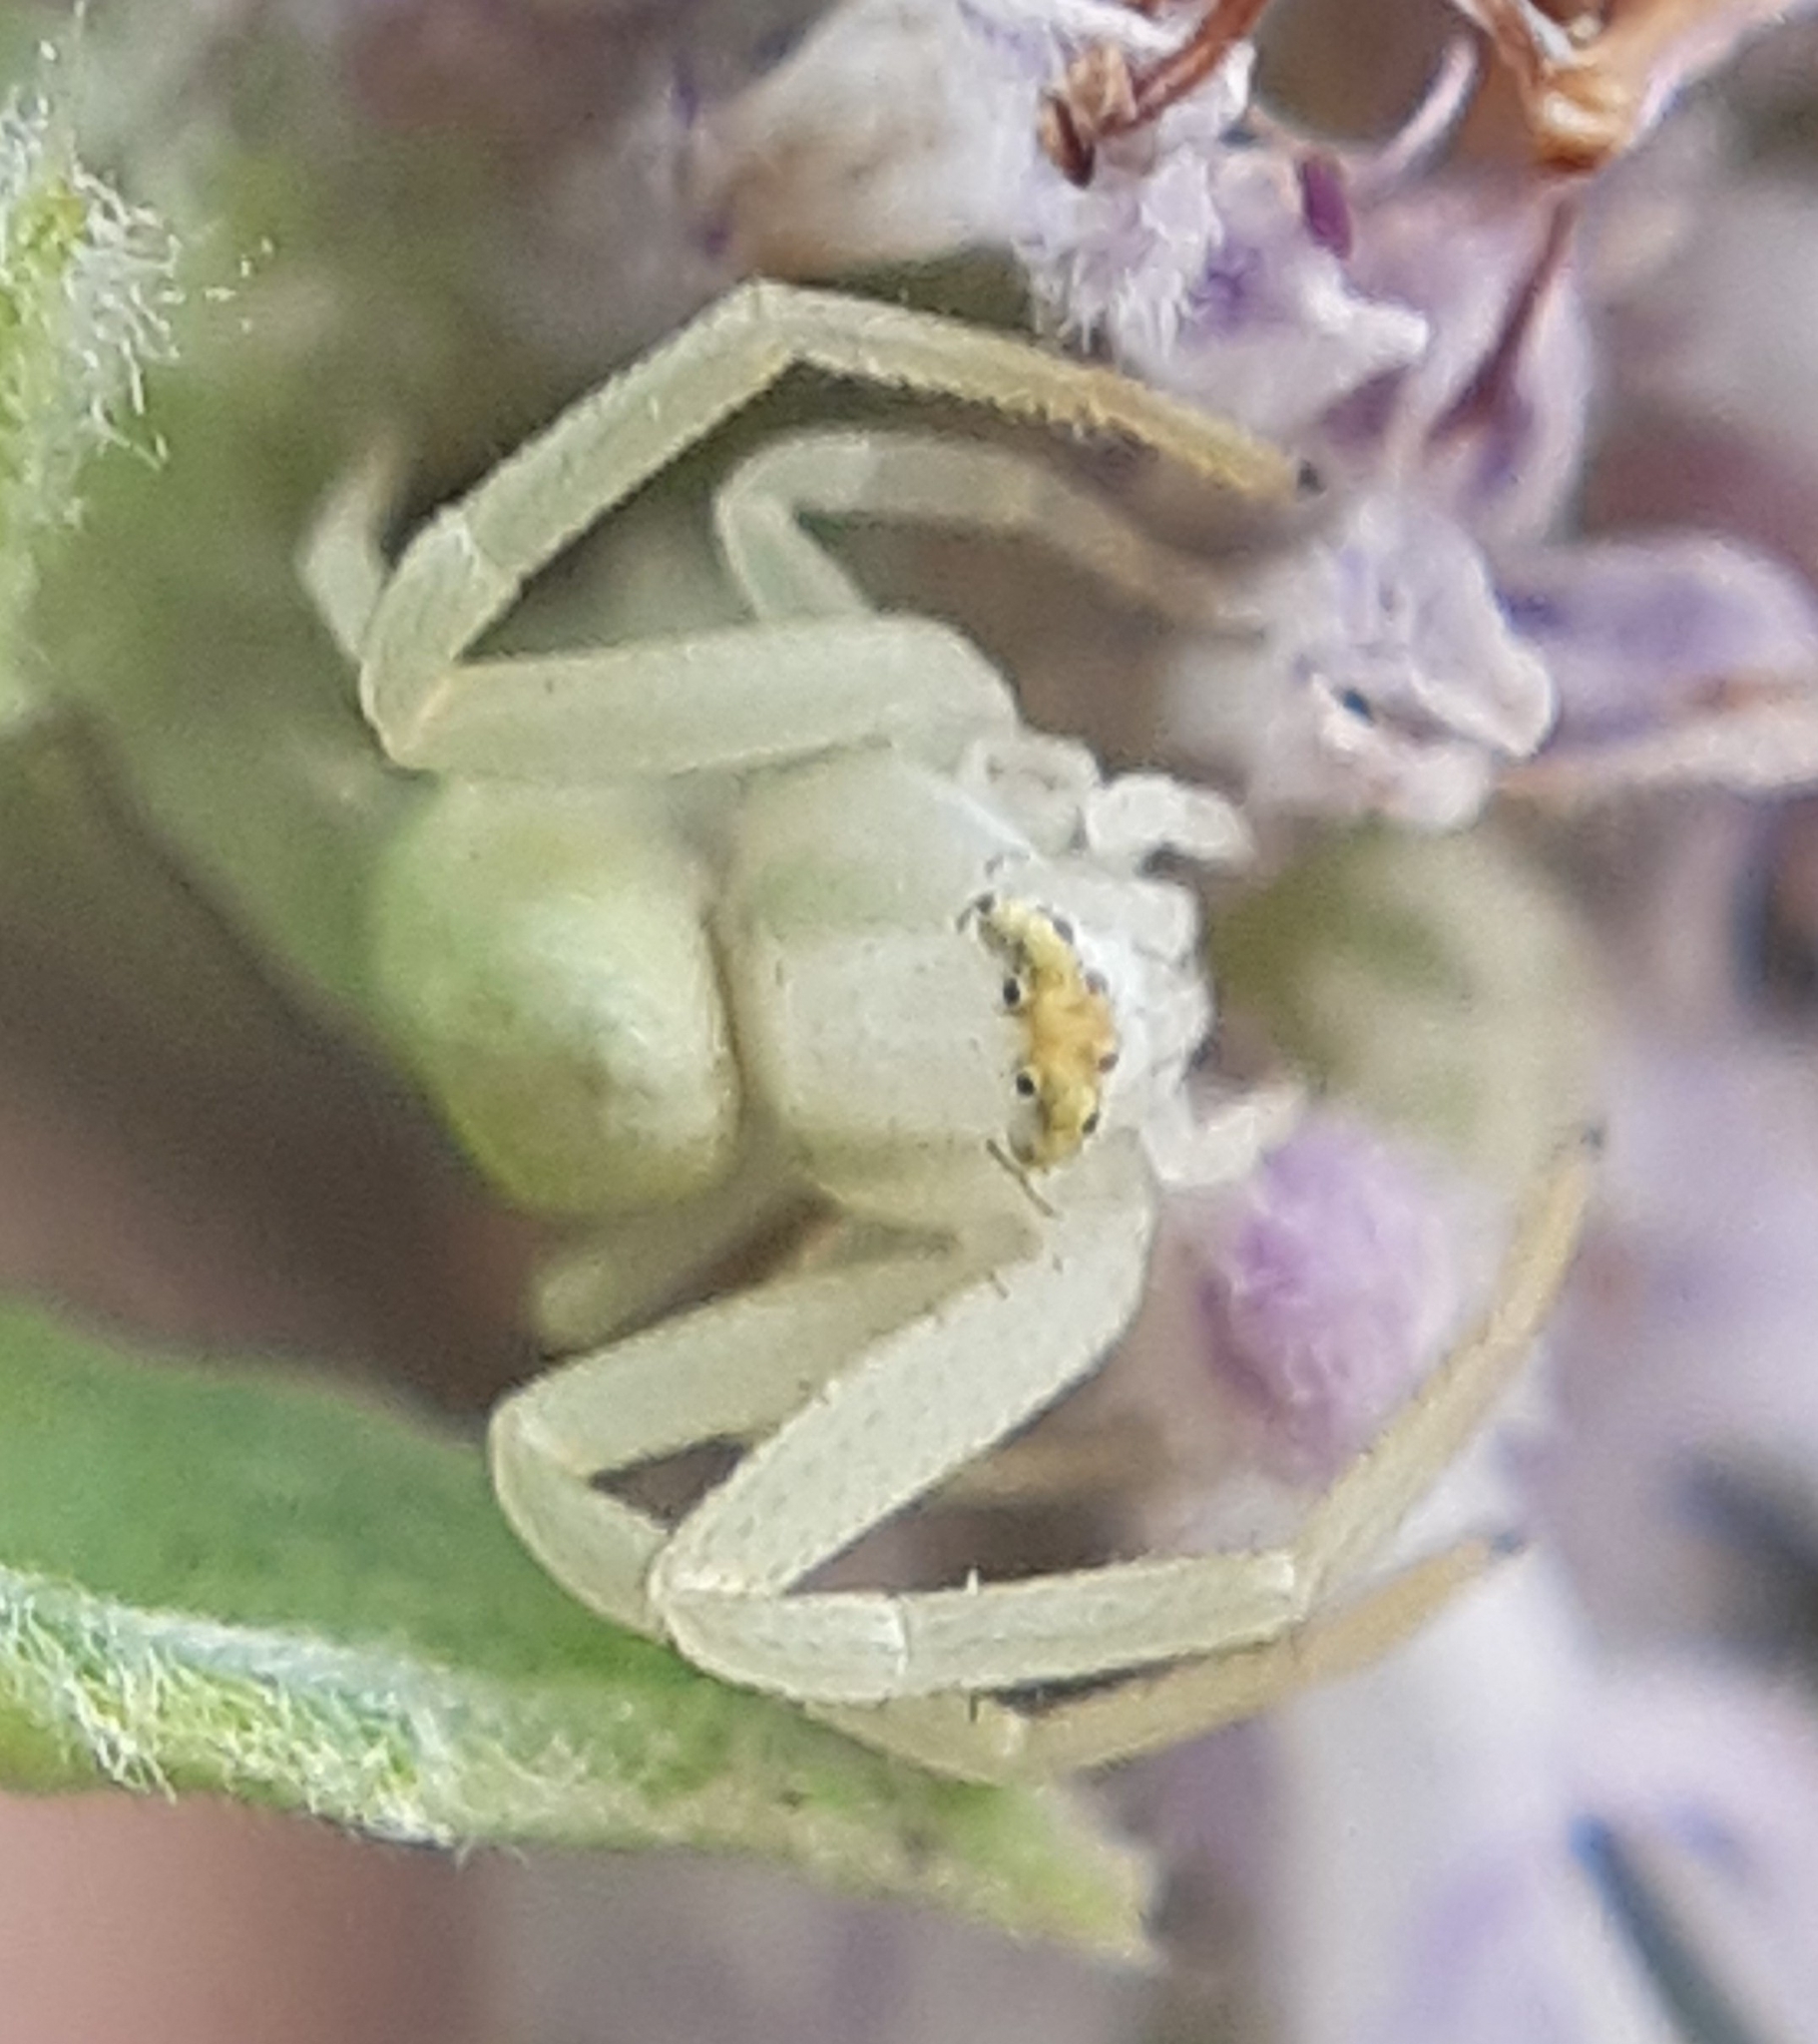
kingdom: Animalia
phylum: Arthropoda
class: Arachnida
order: Araneae
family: Thomisidae
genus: Misumena
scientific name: Misumena vatia
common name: Goldenrod crab spider
